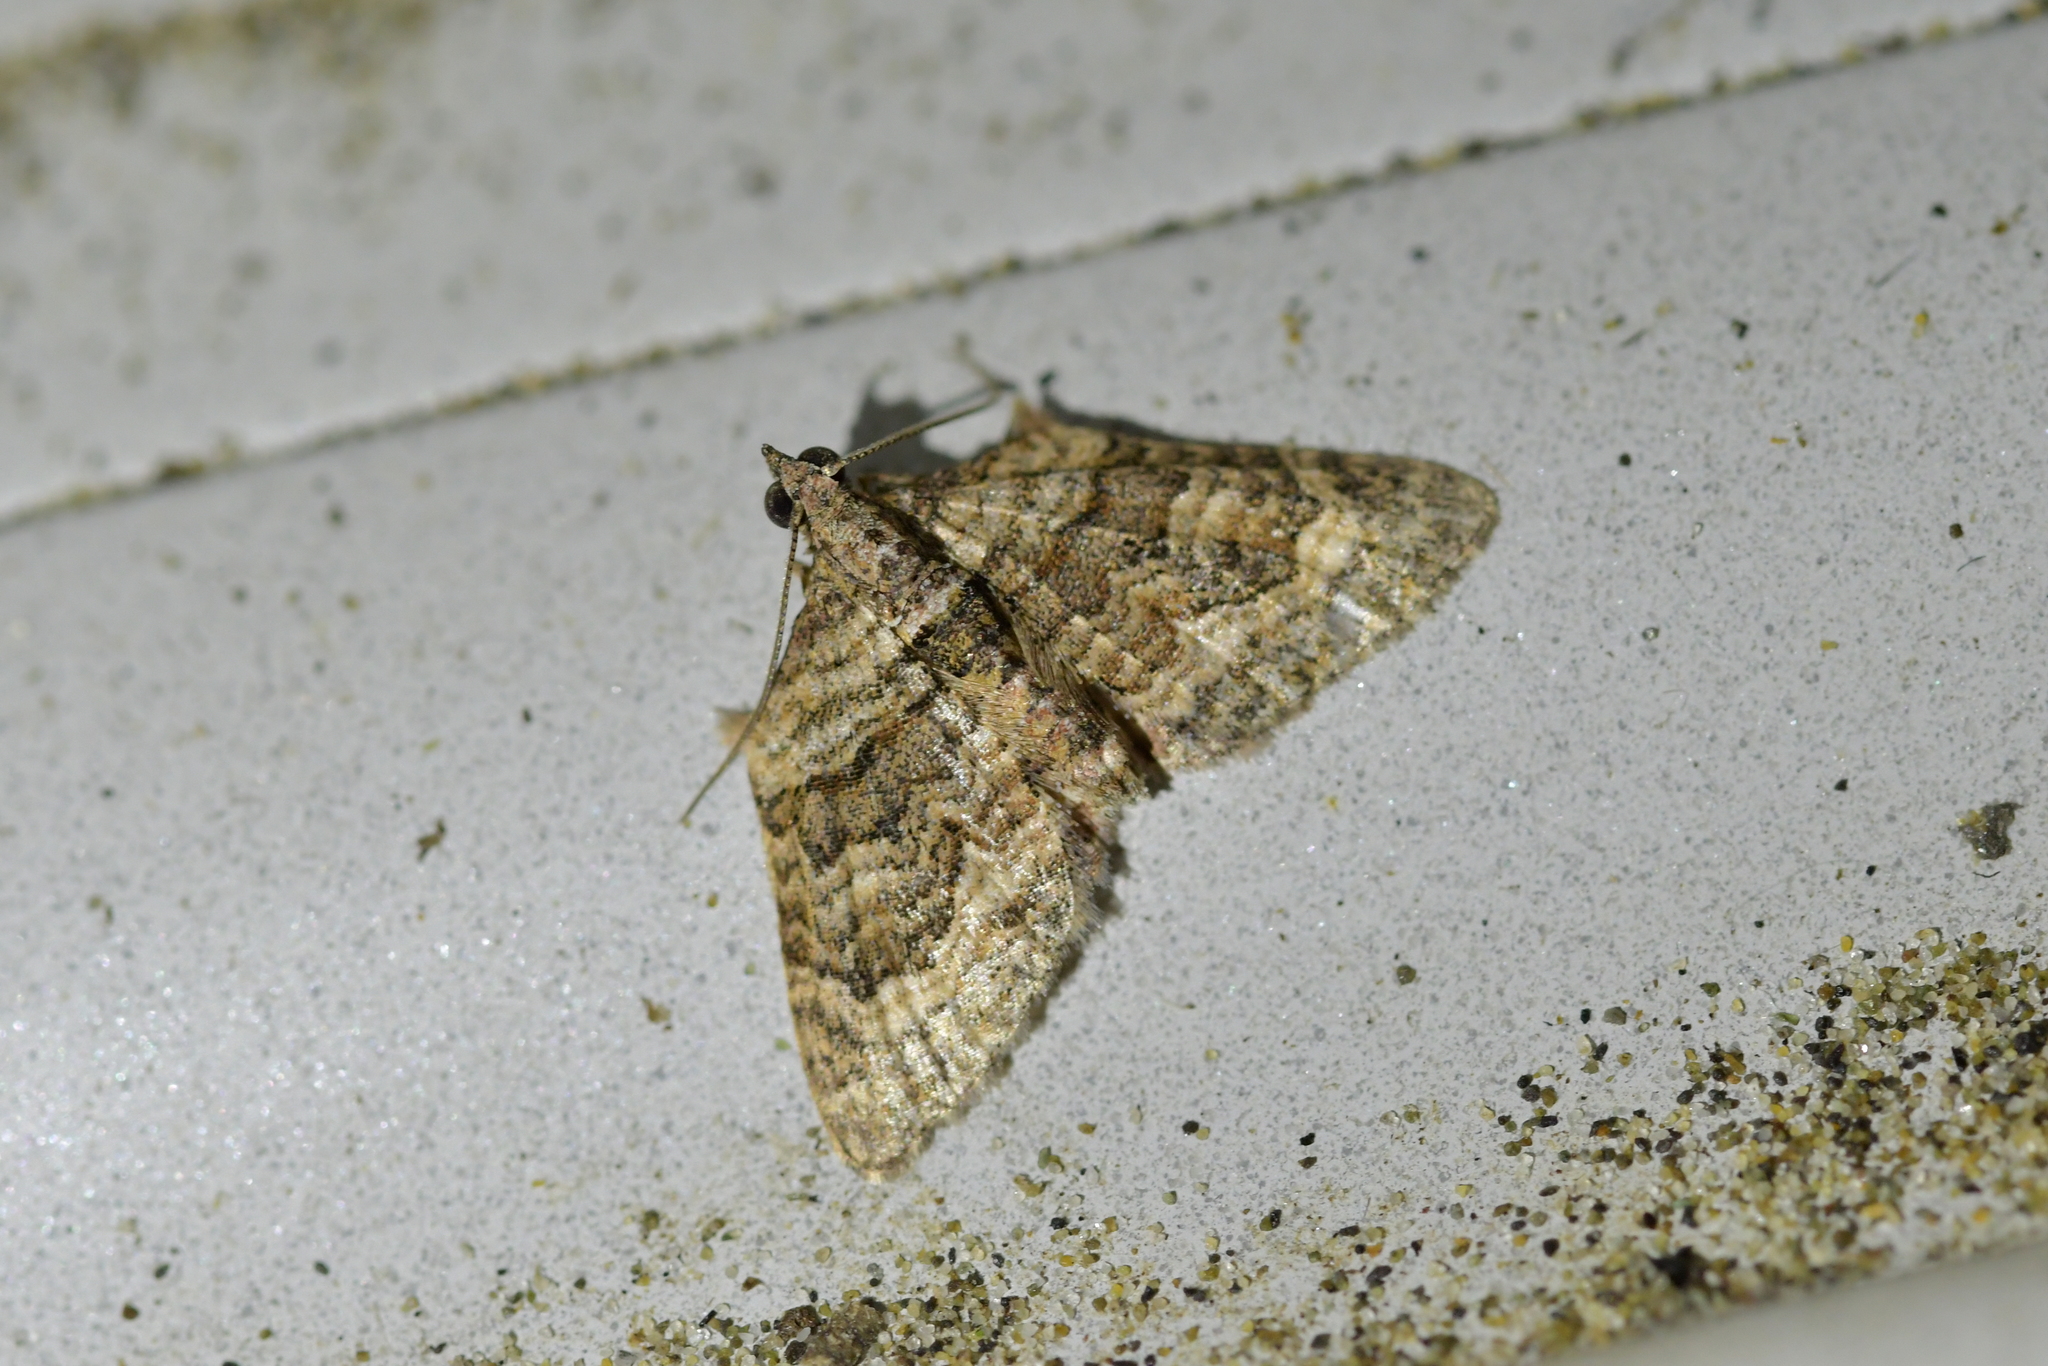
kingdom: Animalia
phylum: Arthropoda
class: Insecta
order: Lepidoptera
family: Geometridae
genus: Phrissogonus
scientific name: Phrissogonus laticostata
